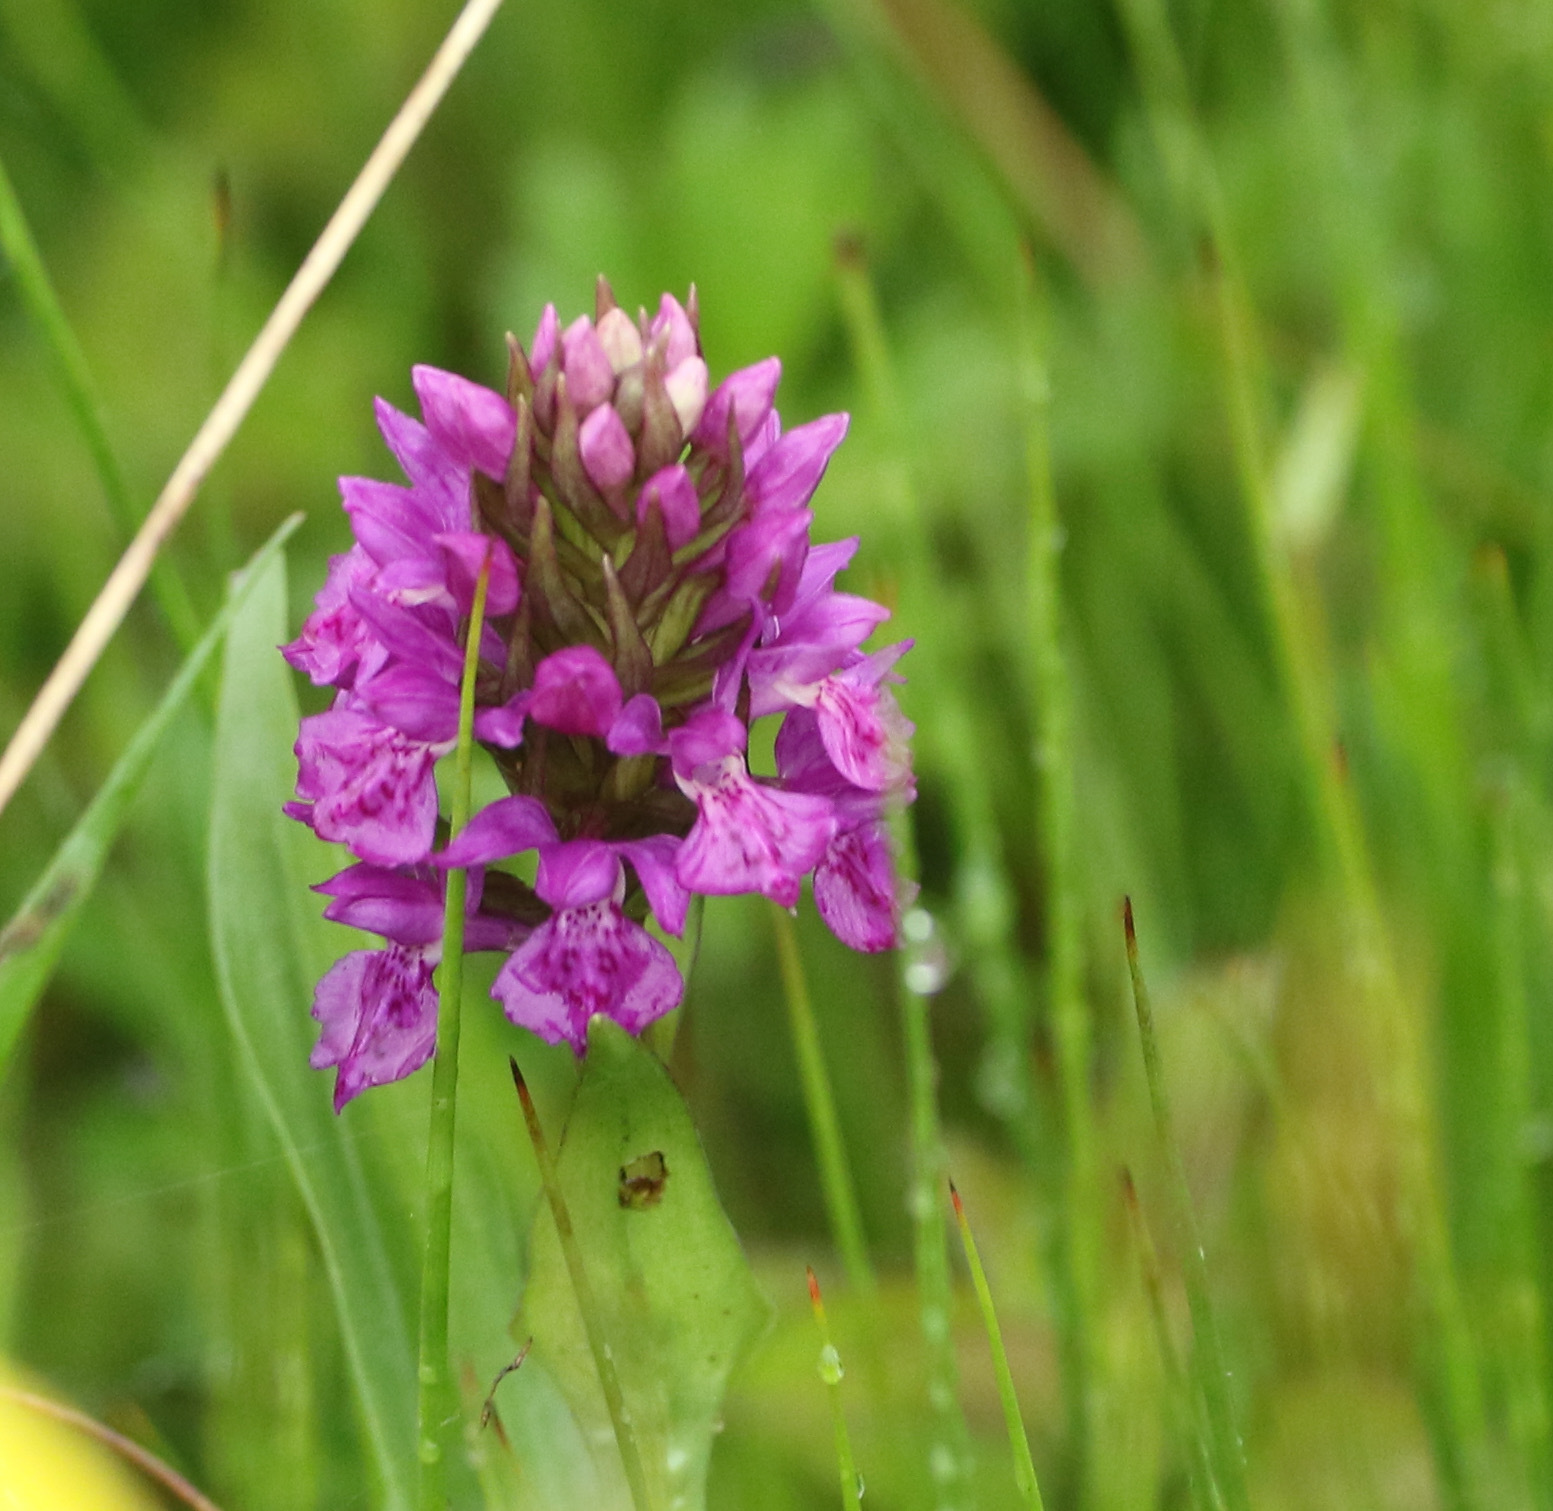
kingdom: Plantae
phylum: Tracheophyta
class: Liliopsida
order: Asparagales
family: Orchidaceae
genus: Dactylorhiza
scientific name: Dactylorhiza majalis
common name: Marsh orchid
